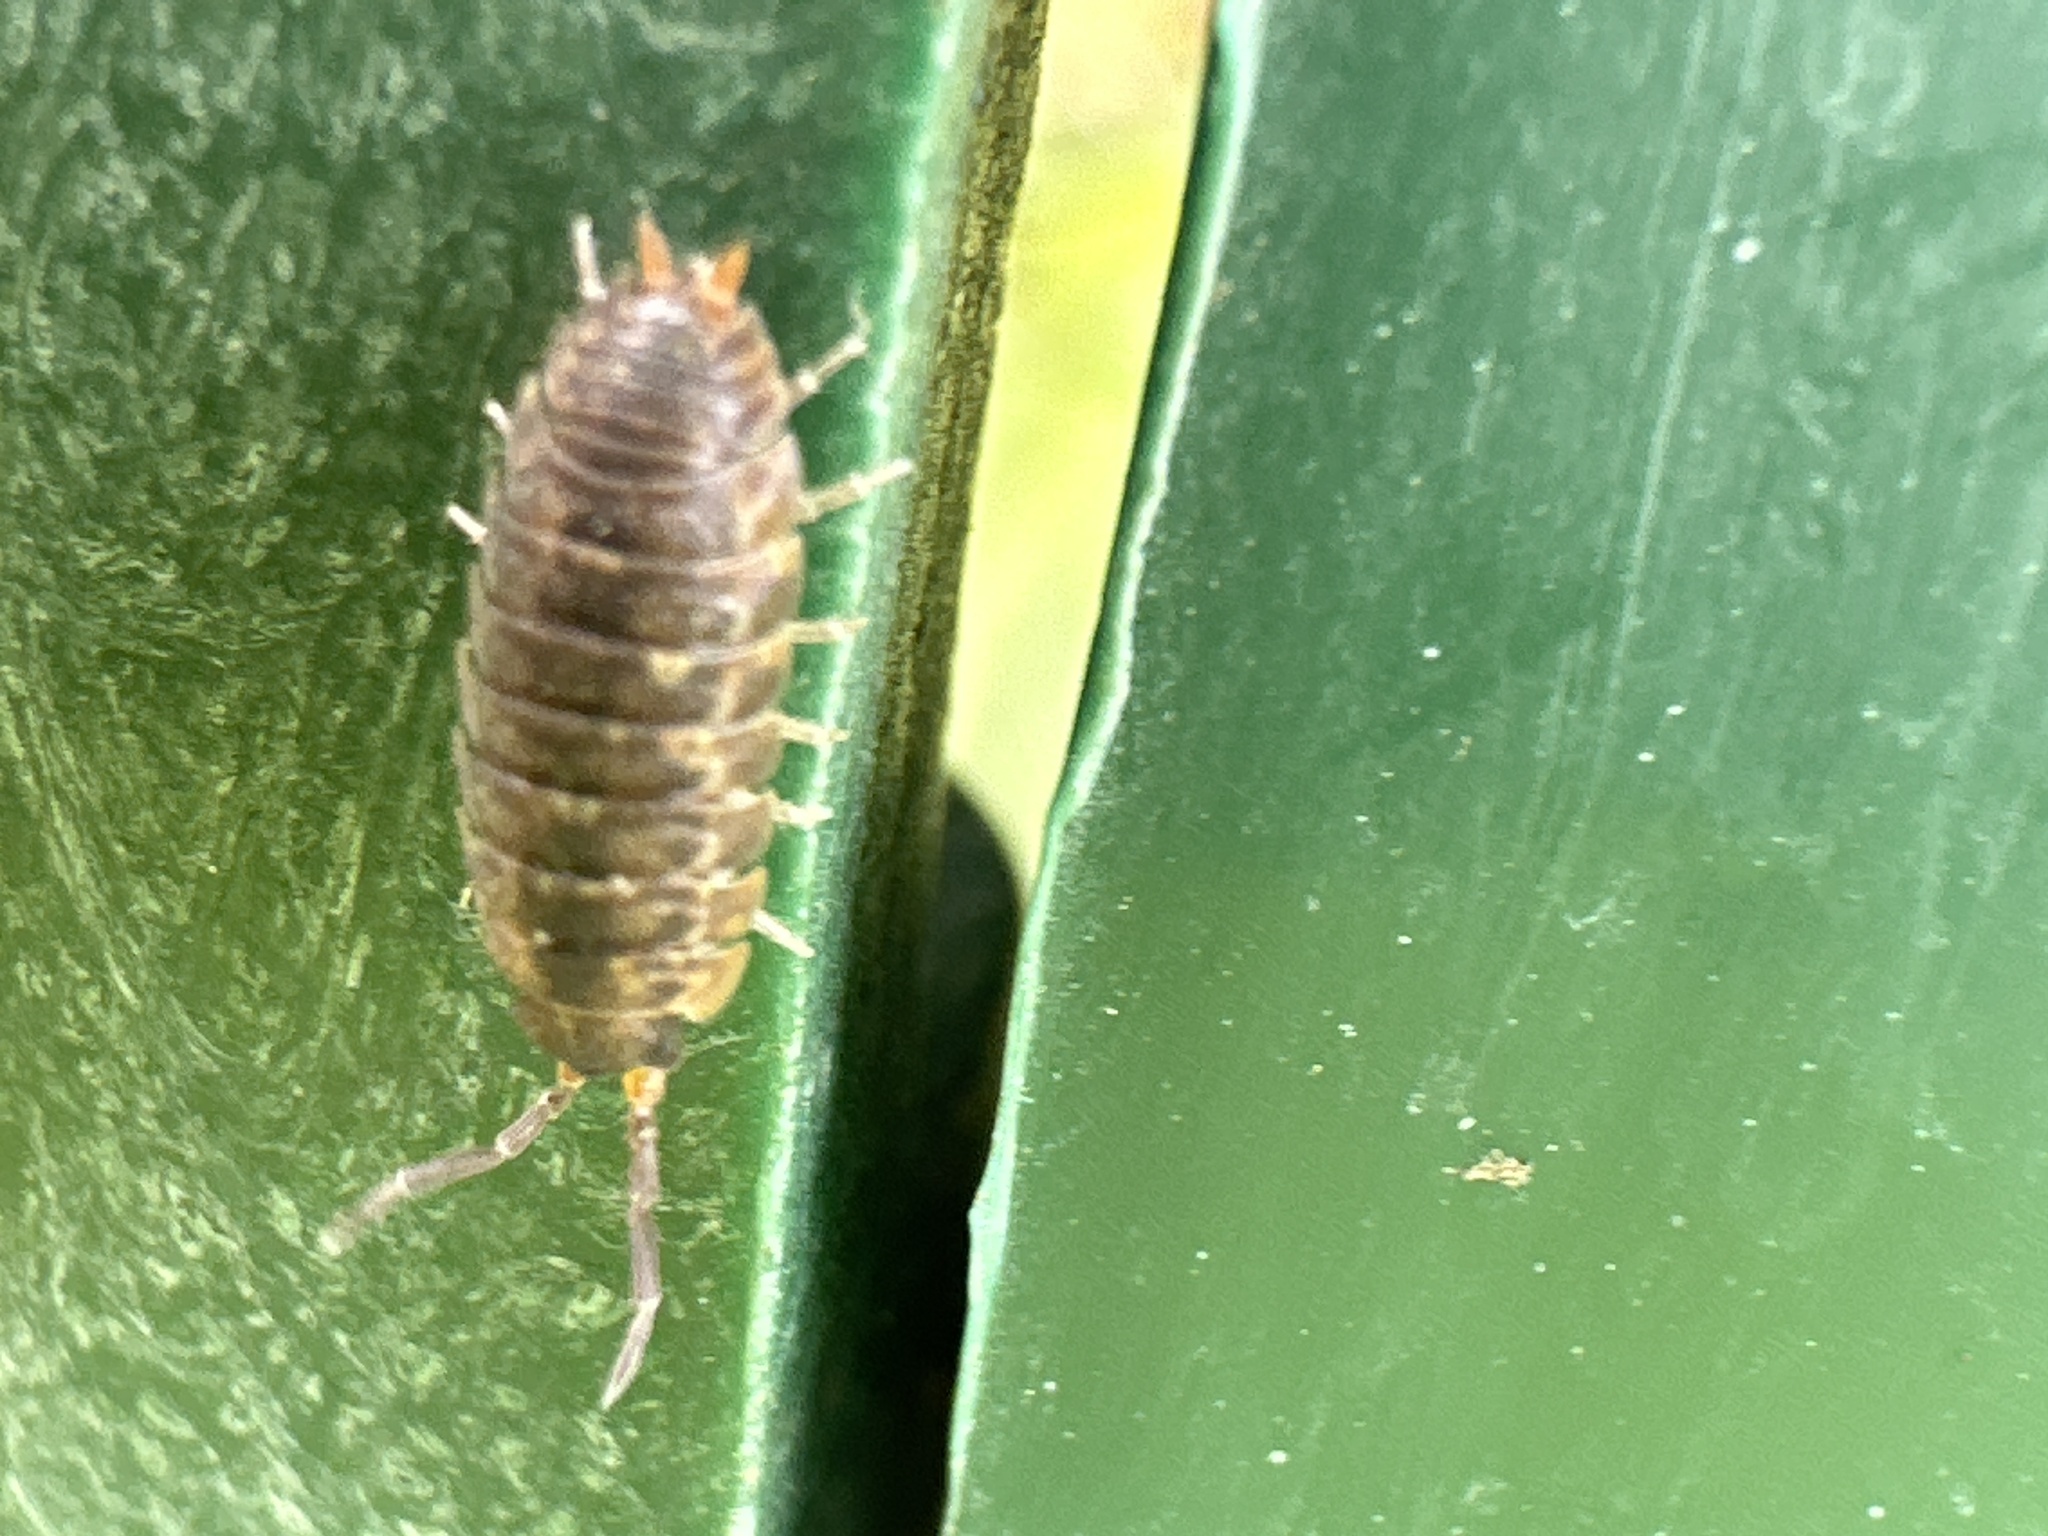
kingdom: Animalia
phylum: Arthropoda
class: Malacostraca
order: Isopoda
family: Porcellionidae
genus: Porcellio
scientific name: Porcellio scaber
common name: Common rough woodlouse
